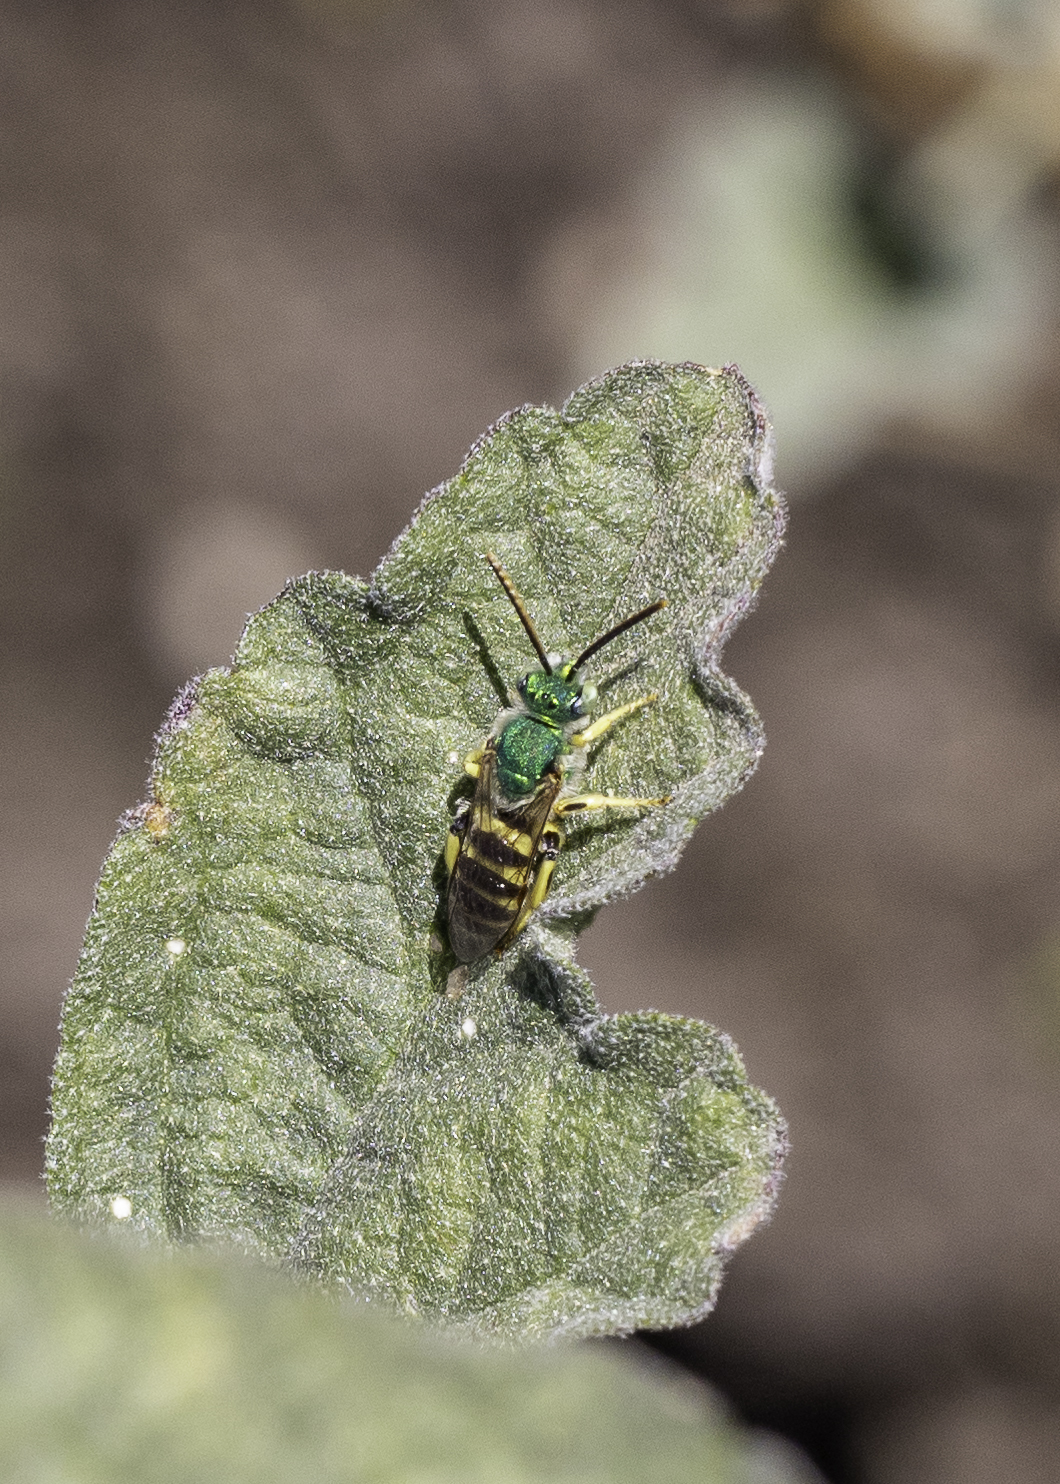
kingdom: Animalia
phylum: Arthropoda
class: Insecta
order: Hymenoptera
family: Halictidae
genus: Agapostemon
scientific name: Agapostemon texanus
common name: Texas striped sweat bee
